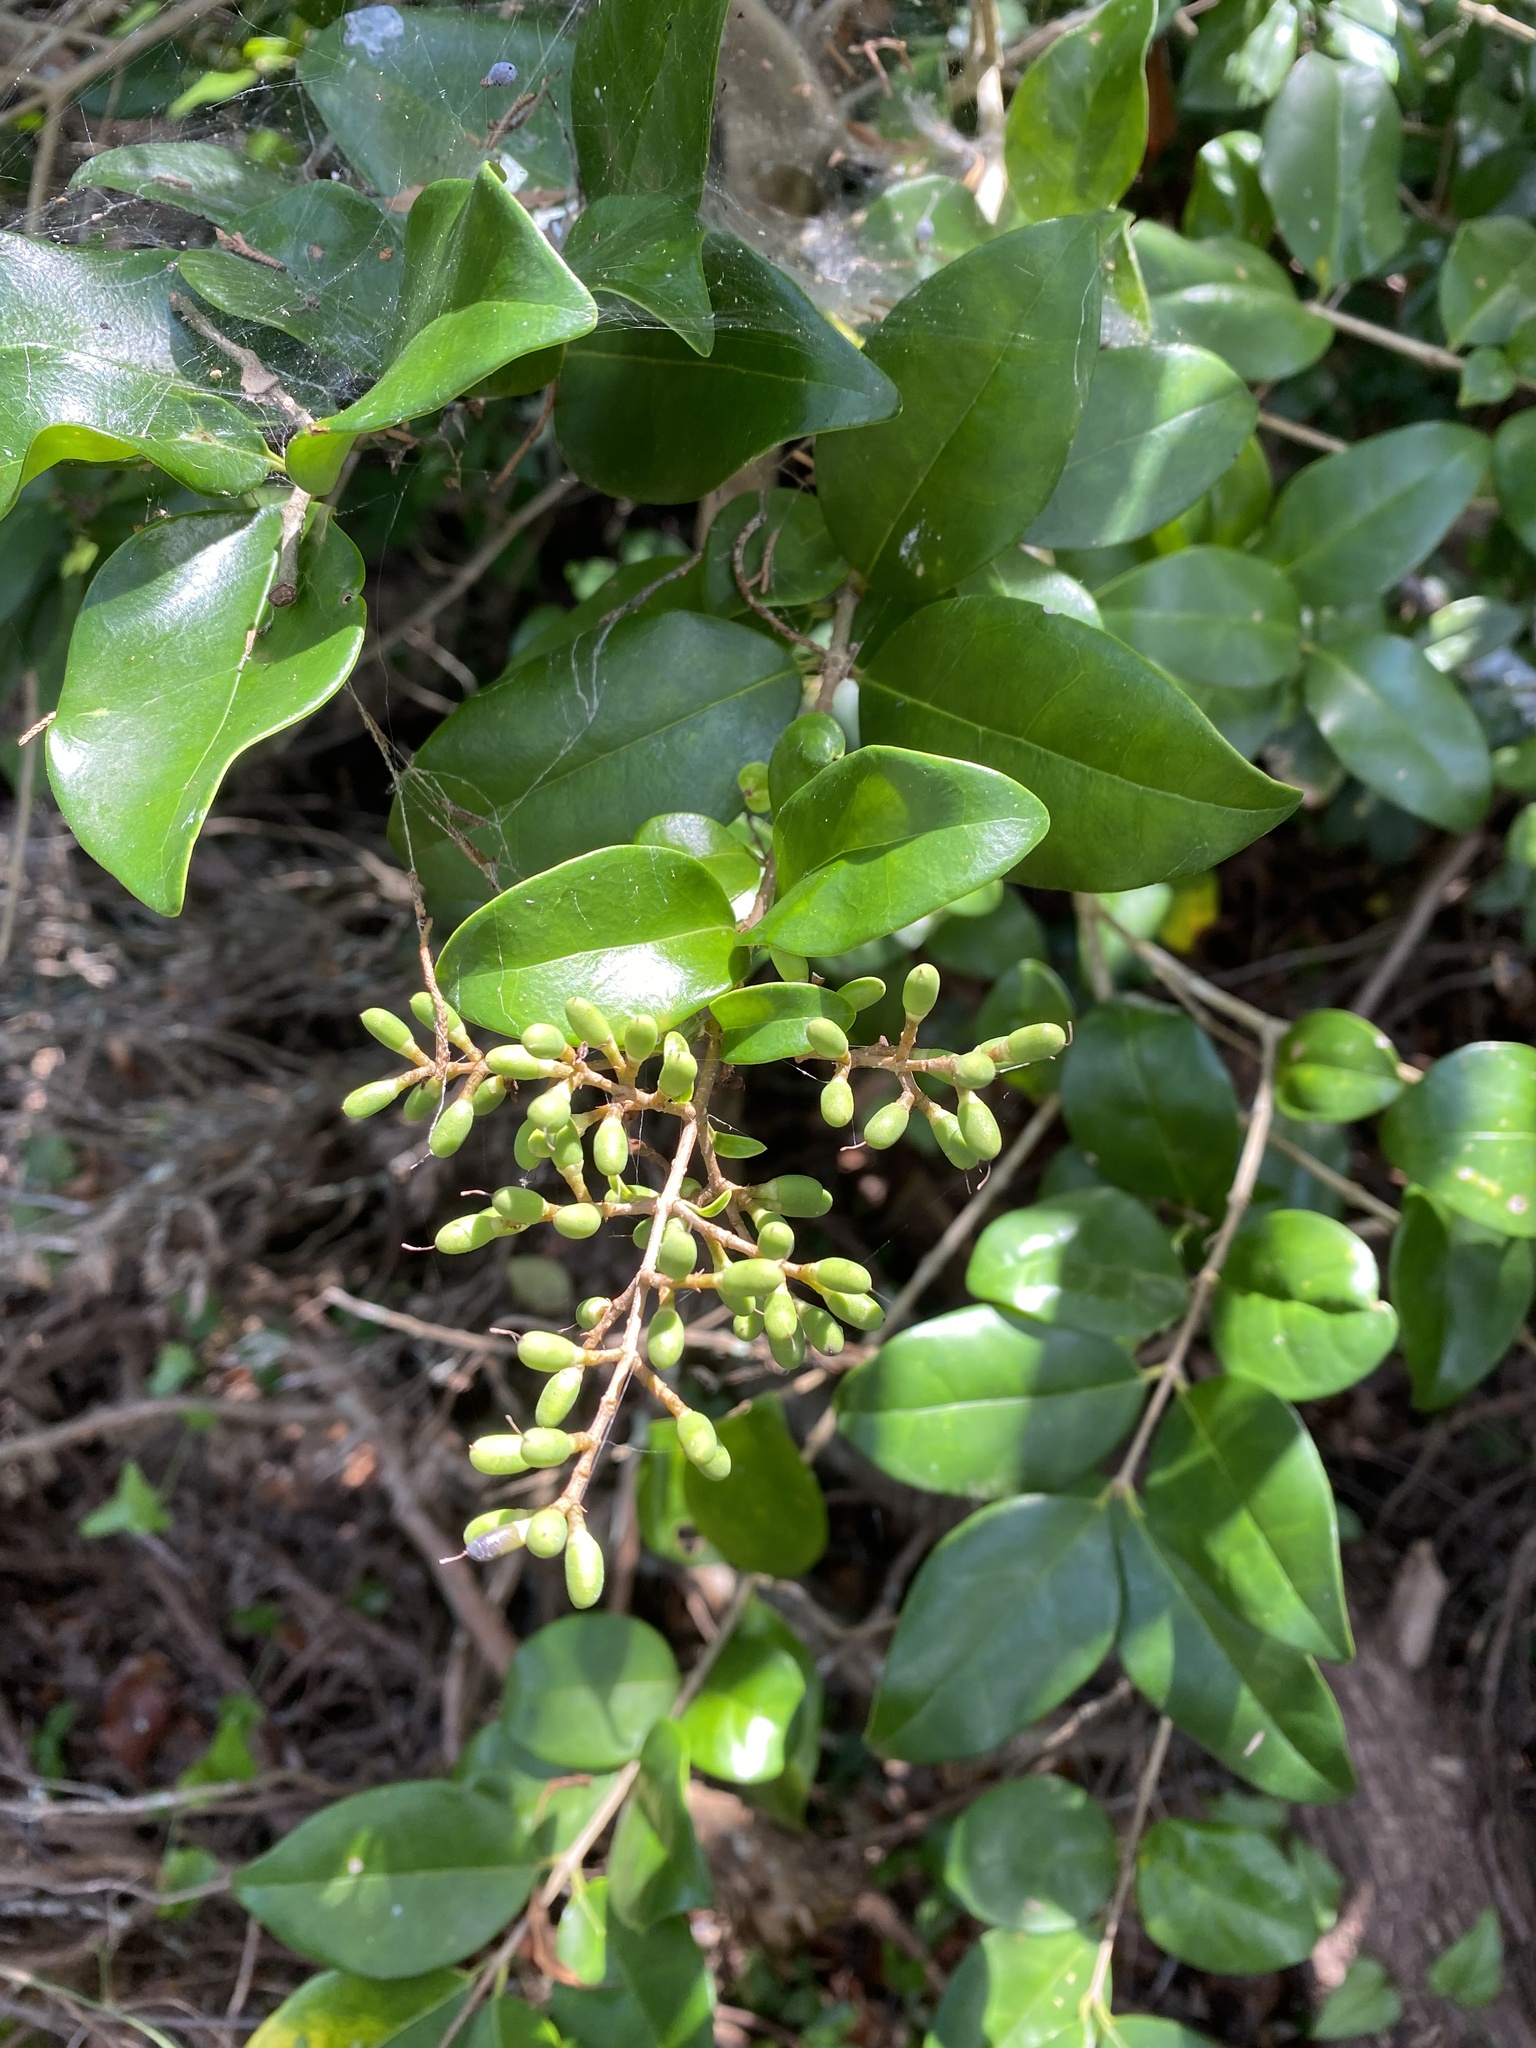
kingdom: Plantae
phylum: Tracheophyta
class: Magnoliopsida
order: Lamiales
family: Oleaceae
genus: Ligustrum
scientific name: Ligustrum japonicum
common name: Japanese privet
